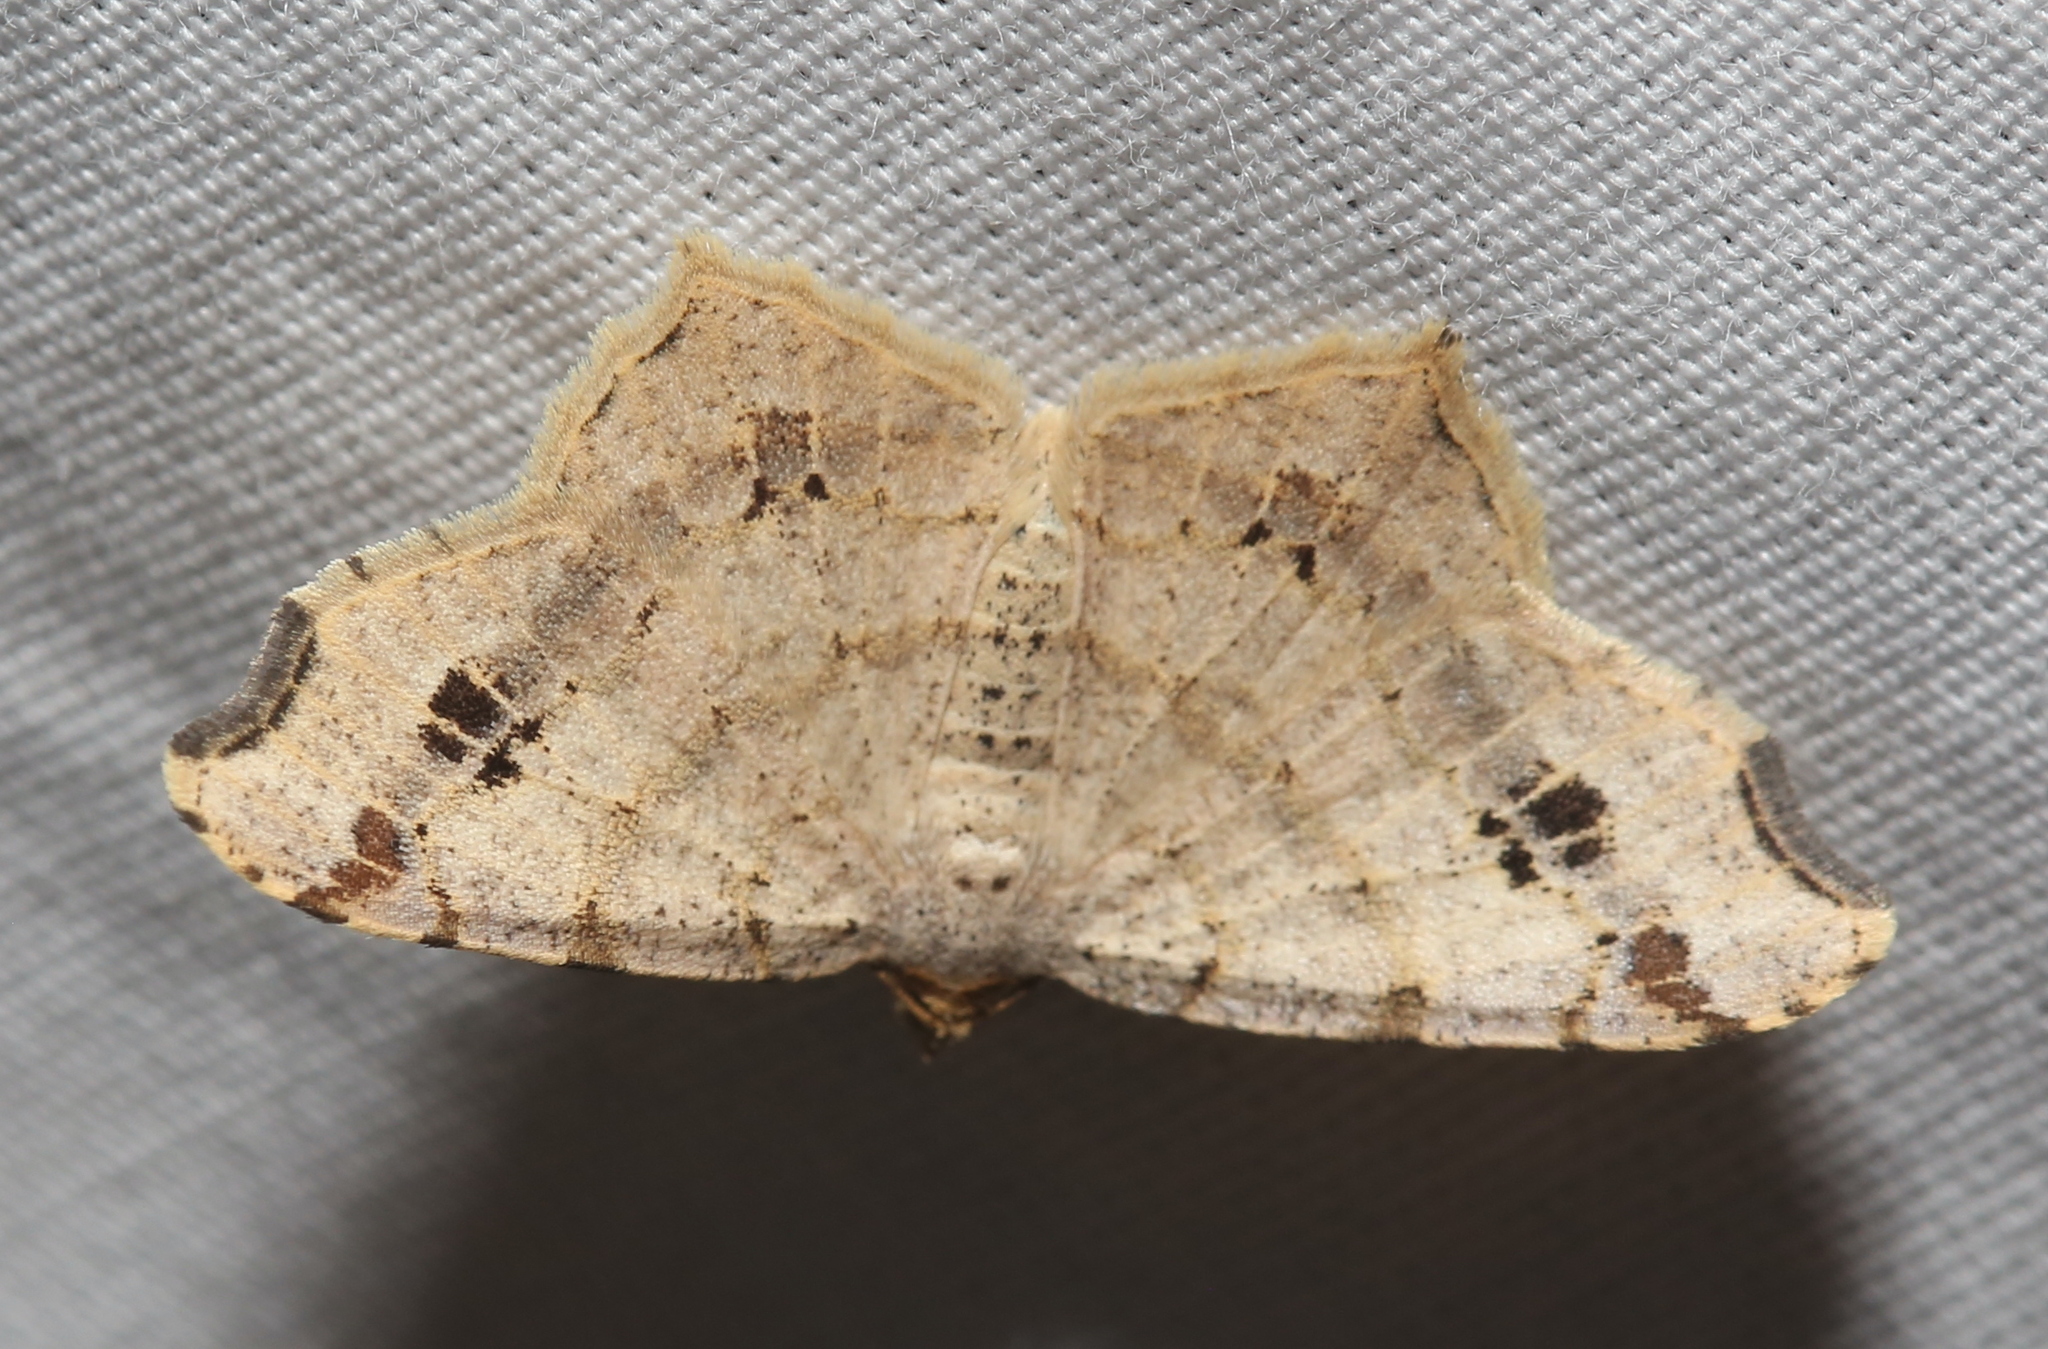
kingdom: Animalia
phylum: Arthropoda
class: Insecta
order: Lepidoptera
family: Geometridae
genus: Macaria
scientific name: Macaria aemulataria
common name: Common angle
